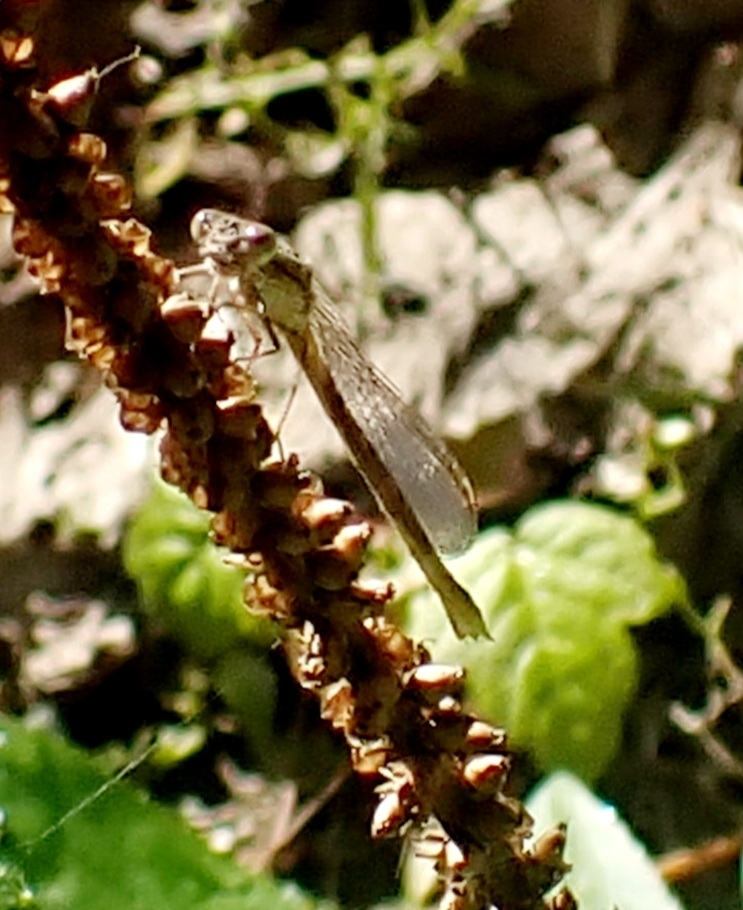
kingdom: Animalia
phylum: Arthropoda
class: Insecta
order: Odonata
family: Lestidae
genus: Sympecma
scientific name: Sympecma paedisca
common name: Siberian winter damsel
